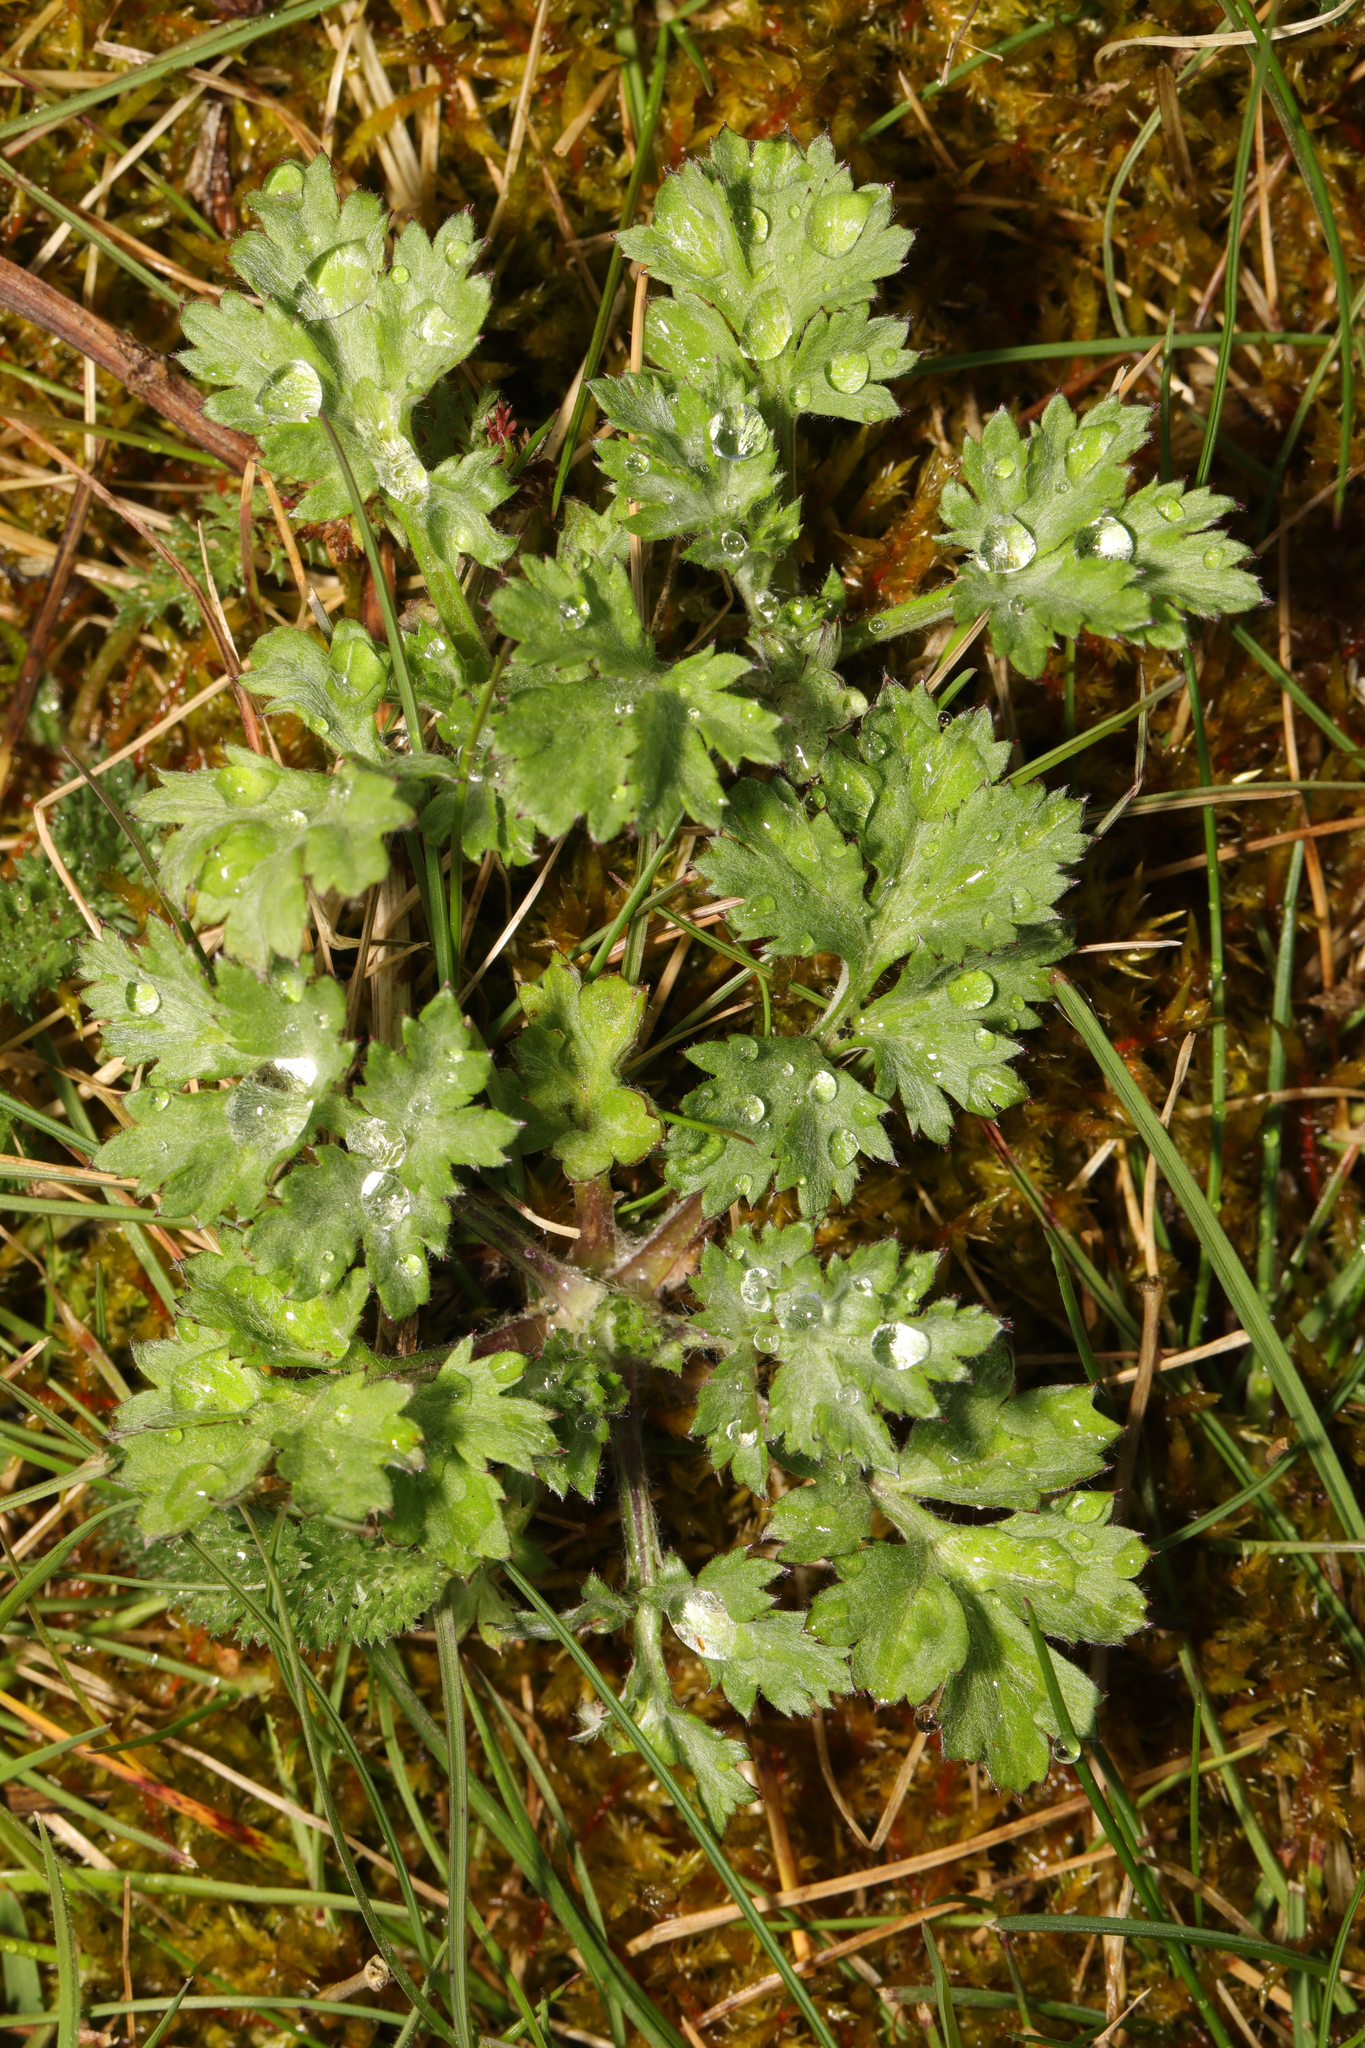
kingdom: Plantae
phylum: Tracheophyta
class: Magnoliopsida
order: Asterales
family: Asteraceae
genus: Artemisia
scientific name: Artemisia vulgaris
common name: Mugwort
